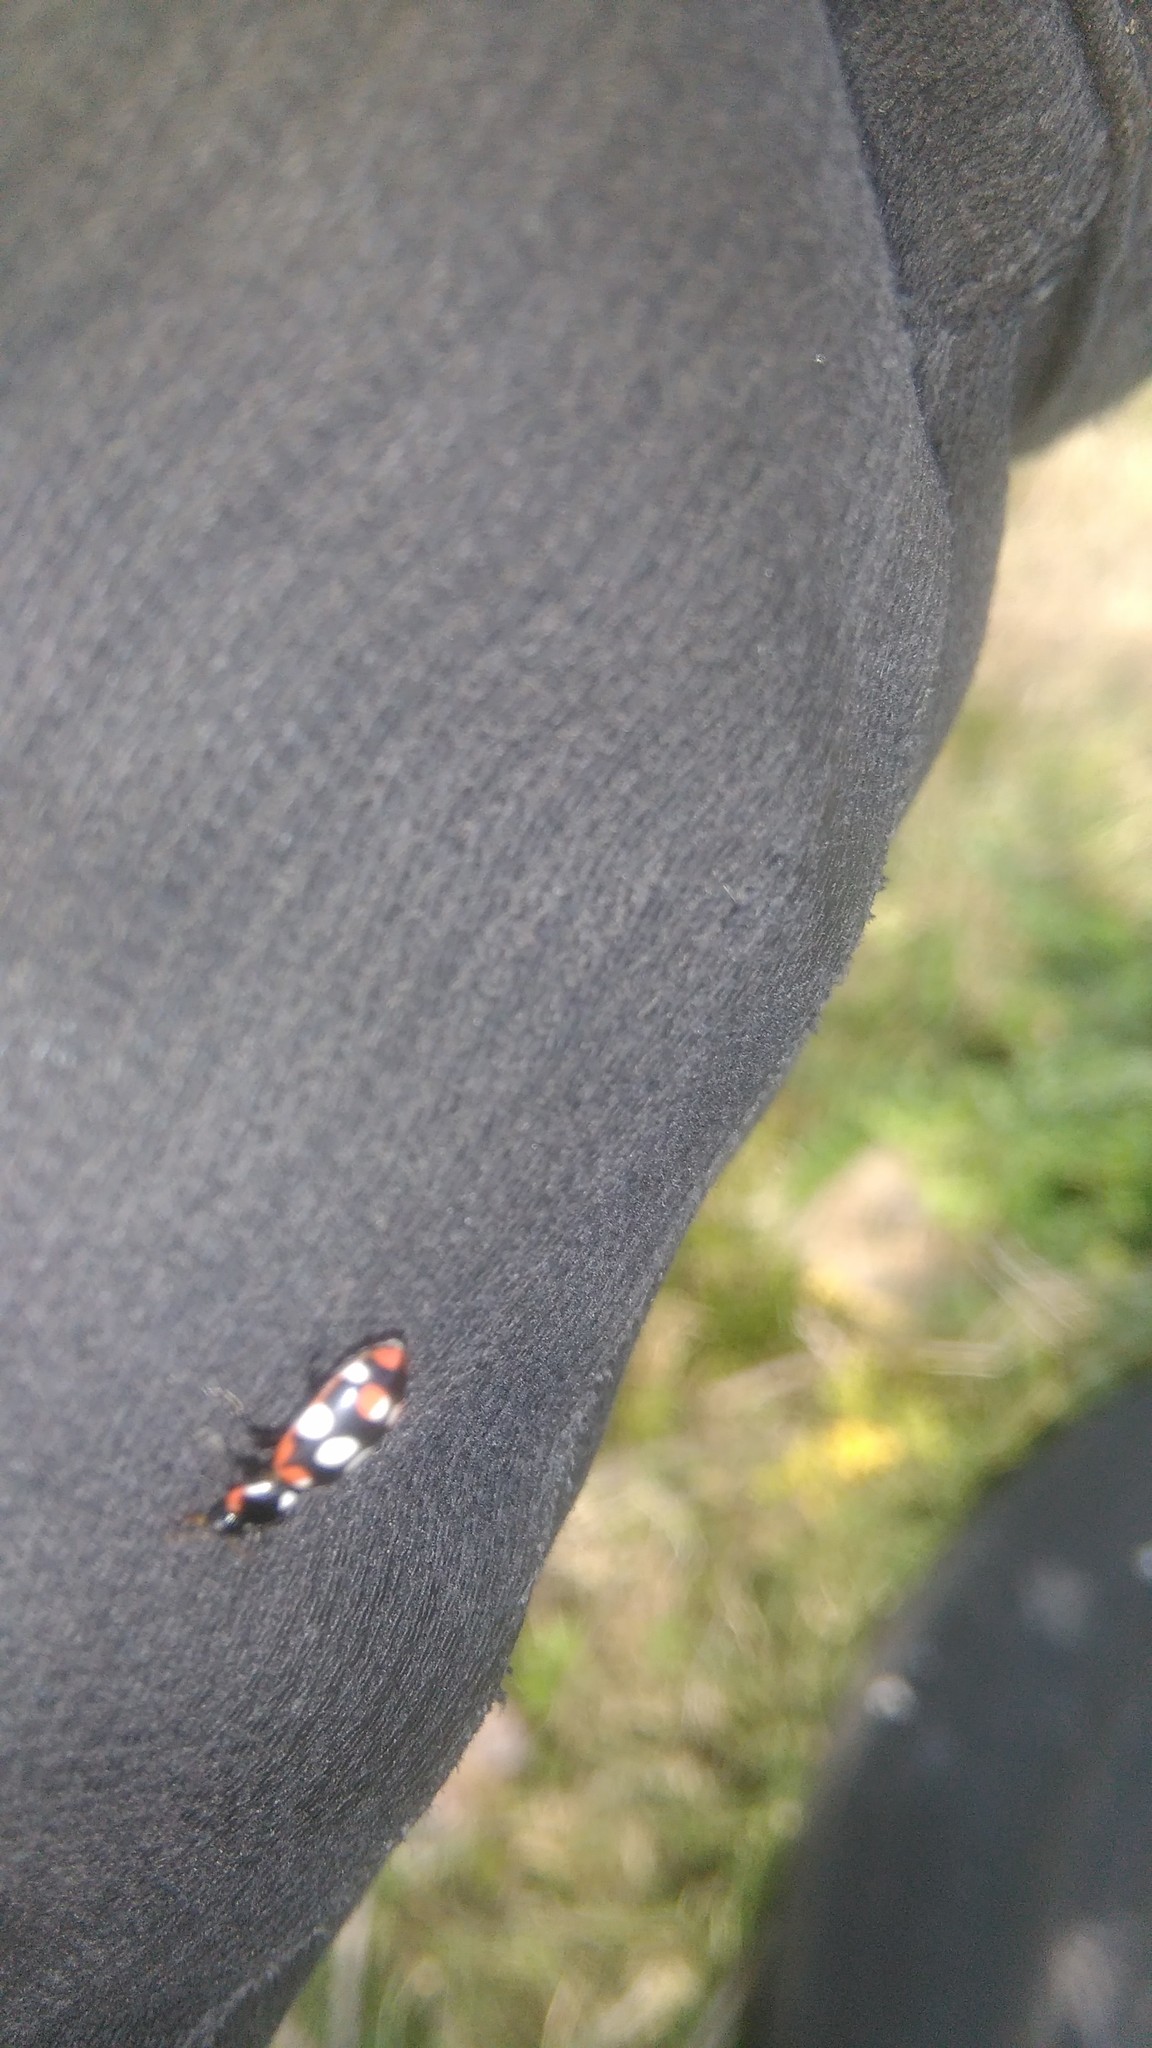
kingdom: Animalia
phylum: Arthropoda
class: Insecta
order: Coleoptera
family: Coccinellidae
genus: Eriopis
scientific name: Eriopis connexa
